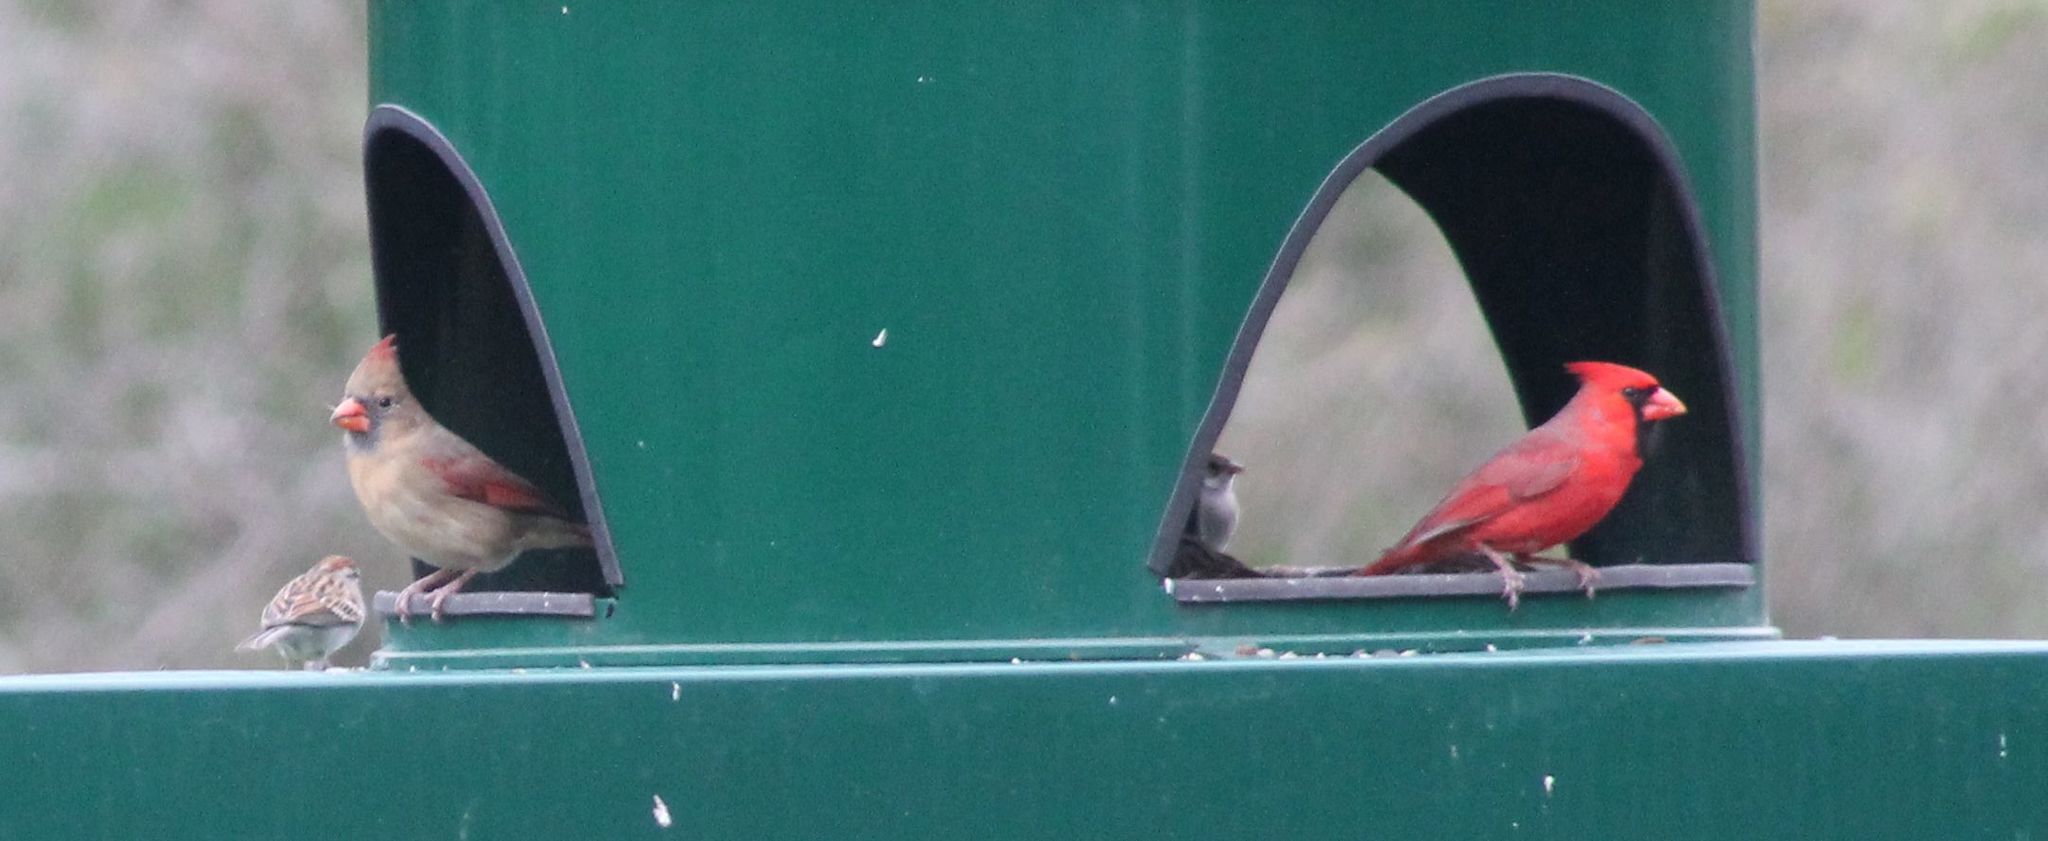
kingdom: Animalia
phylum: Chordata
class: Aves
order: Passeriformes
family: Cardinalidae
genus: Cardinalis
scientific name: Cardinalis cardinalis
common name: Northern cardinal
